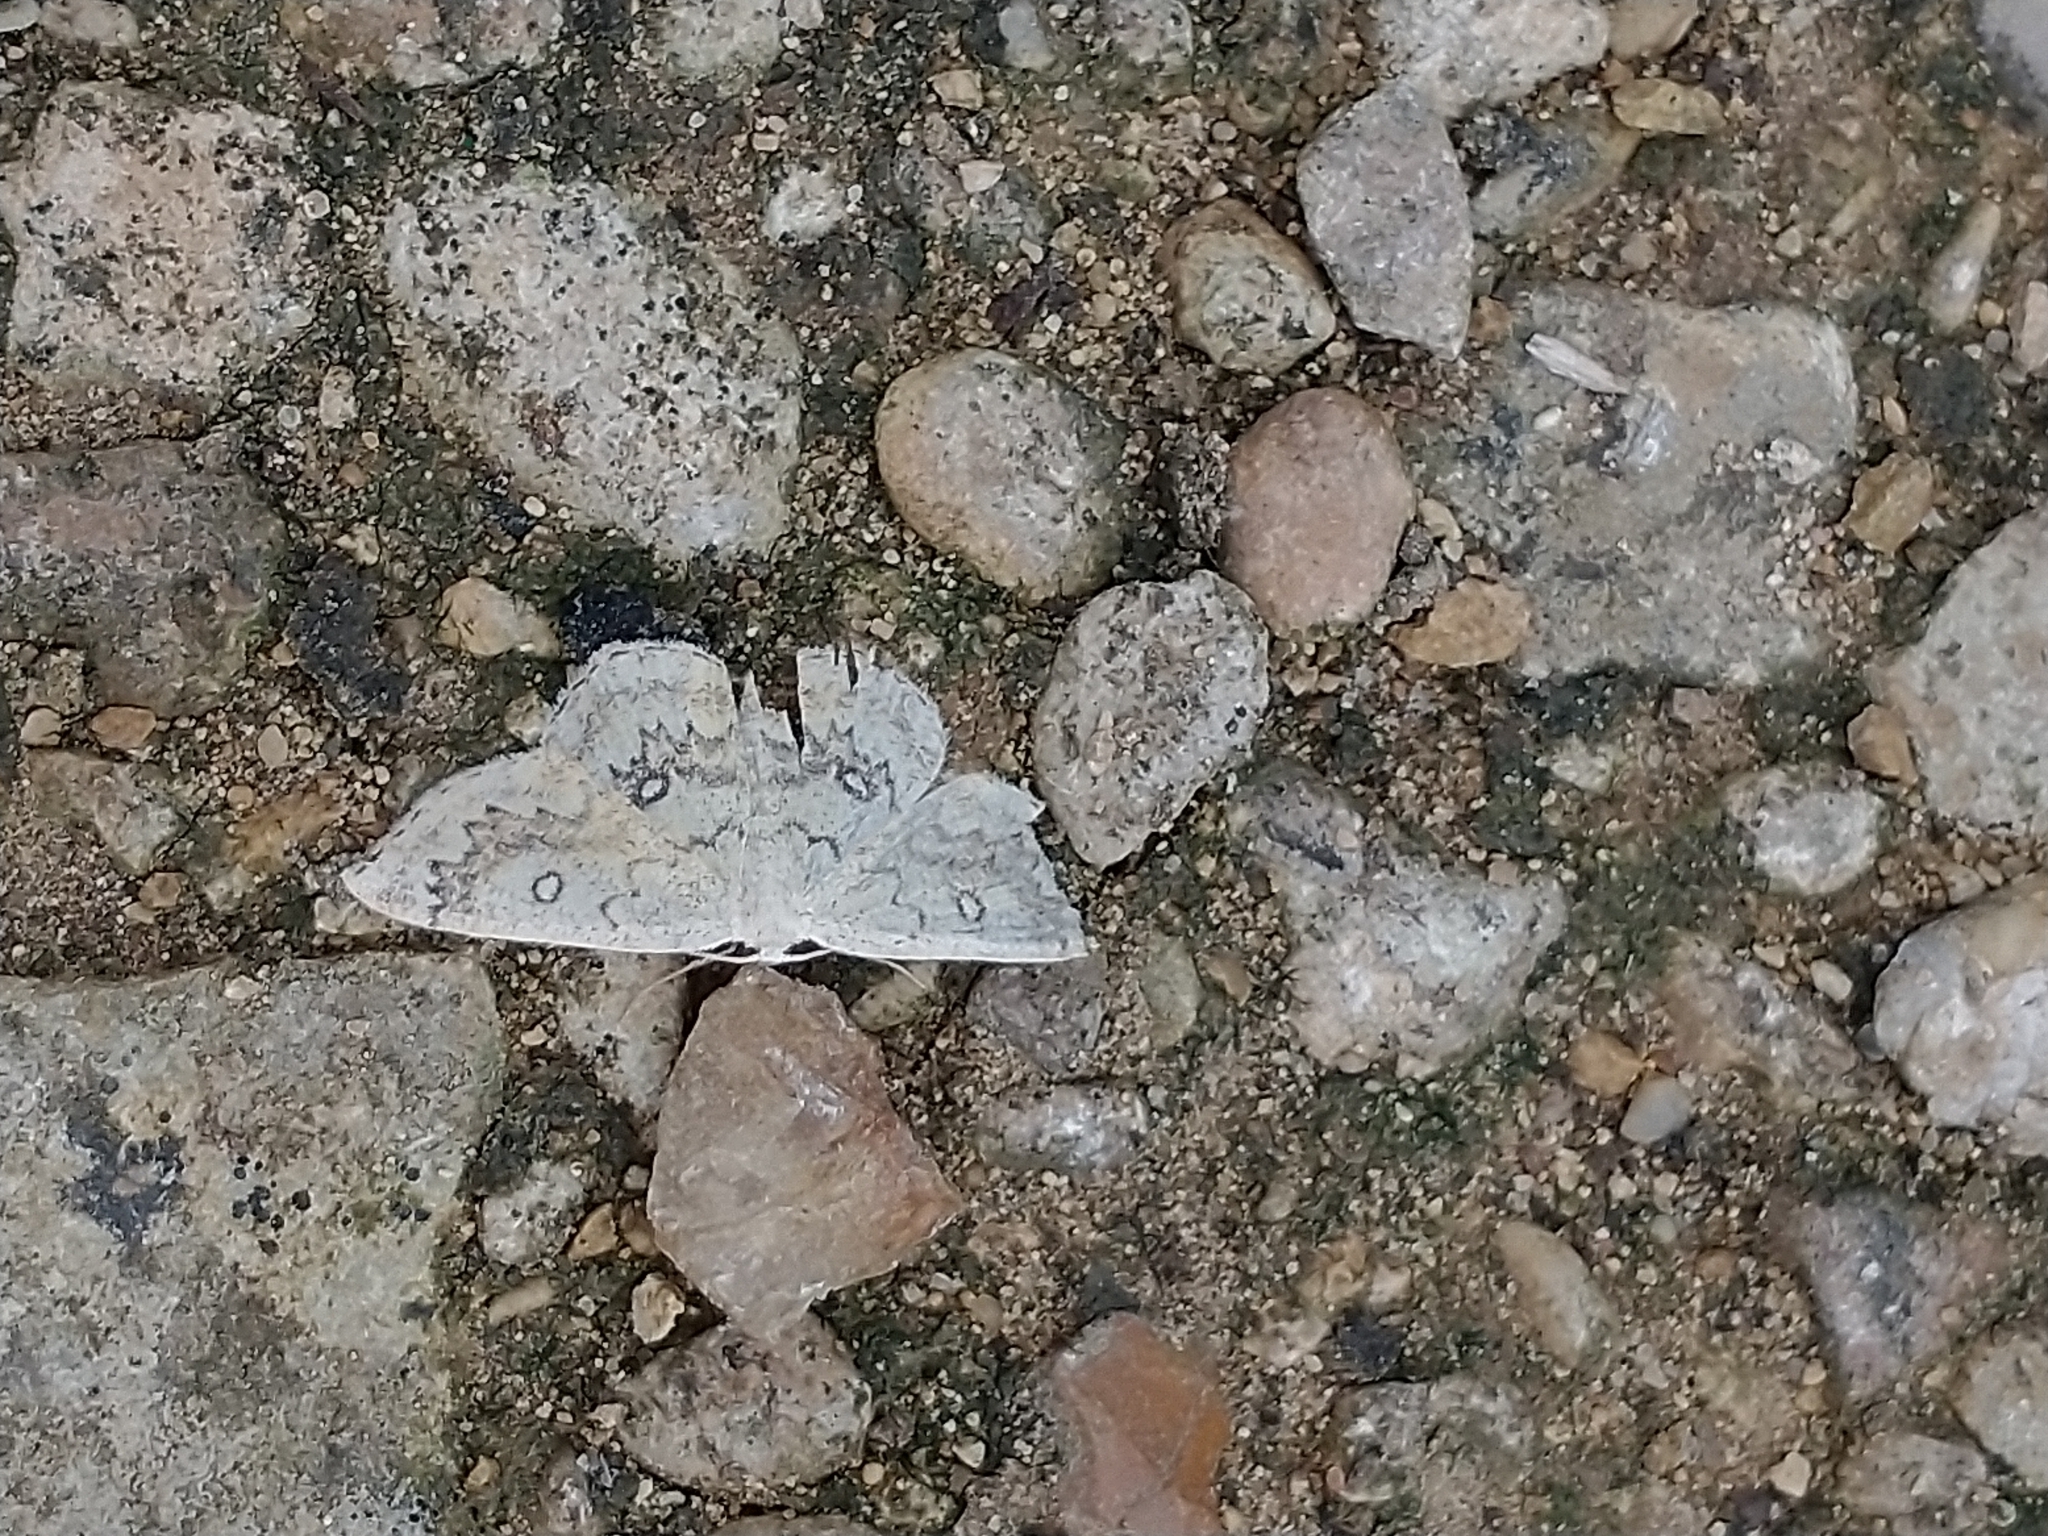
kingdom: Animalia
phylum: Arthropoda
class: Insecta
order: Lepidoptera
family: Geometridae
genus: Cyclophora
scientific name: Cyclophora annularia
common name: Mocha
